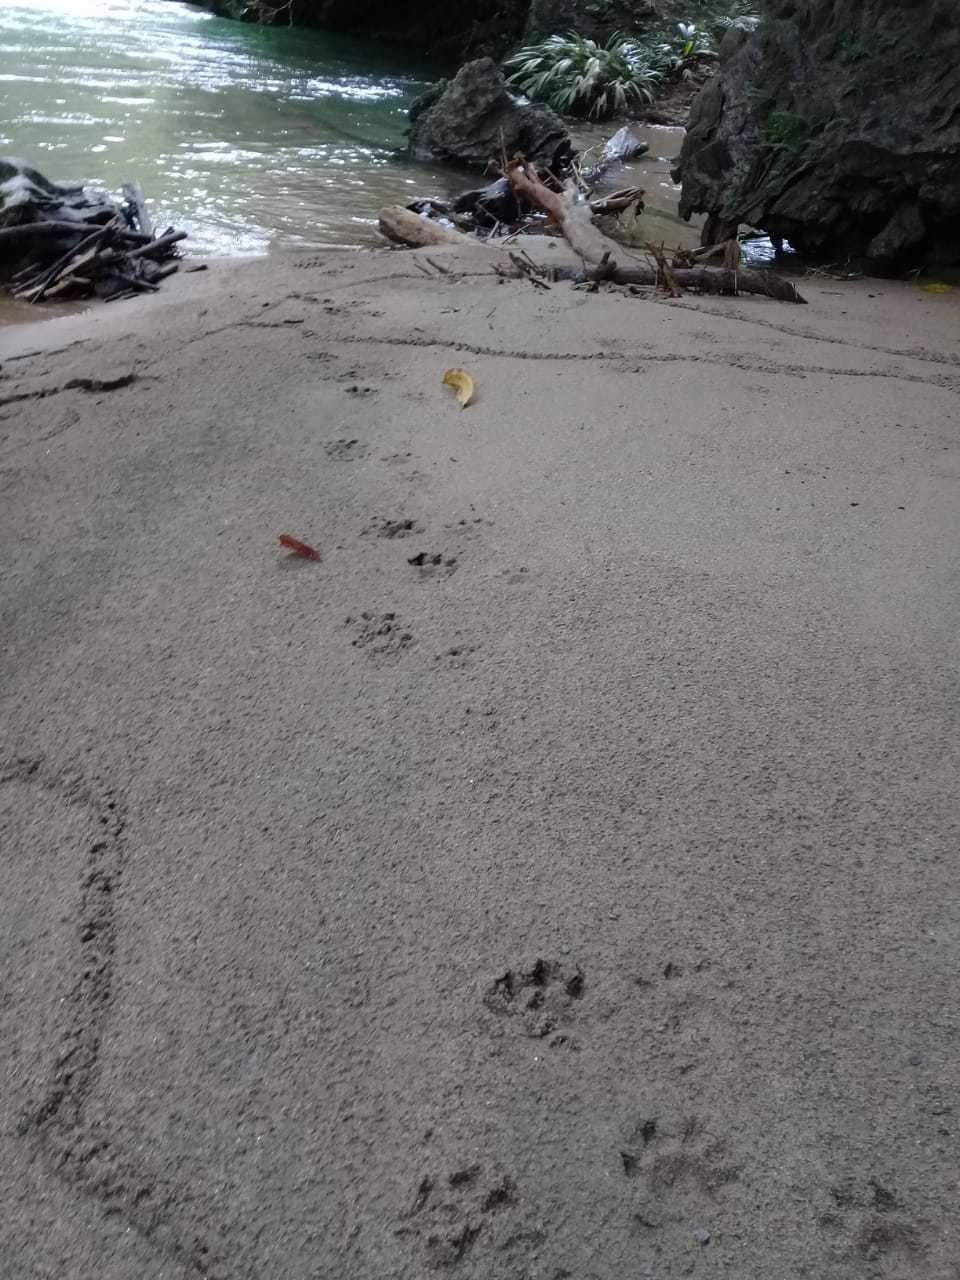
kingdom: Animalia
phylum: Chordata
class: Mammalia
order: Carnivora
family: Mustelidae
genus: Lontra
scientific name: Lontra longicaudis
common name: Neotropical otter
